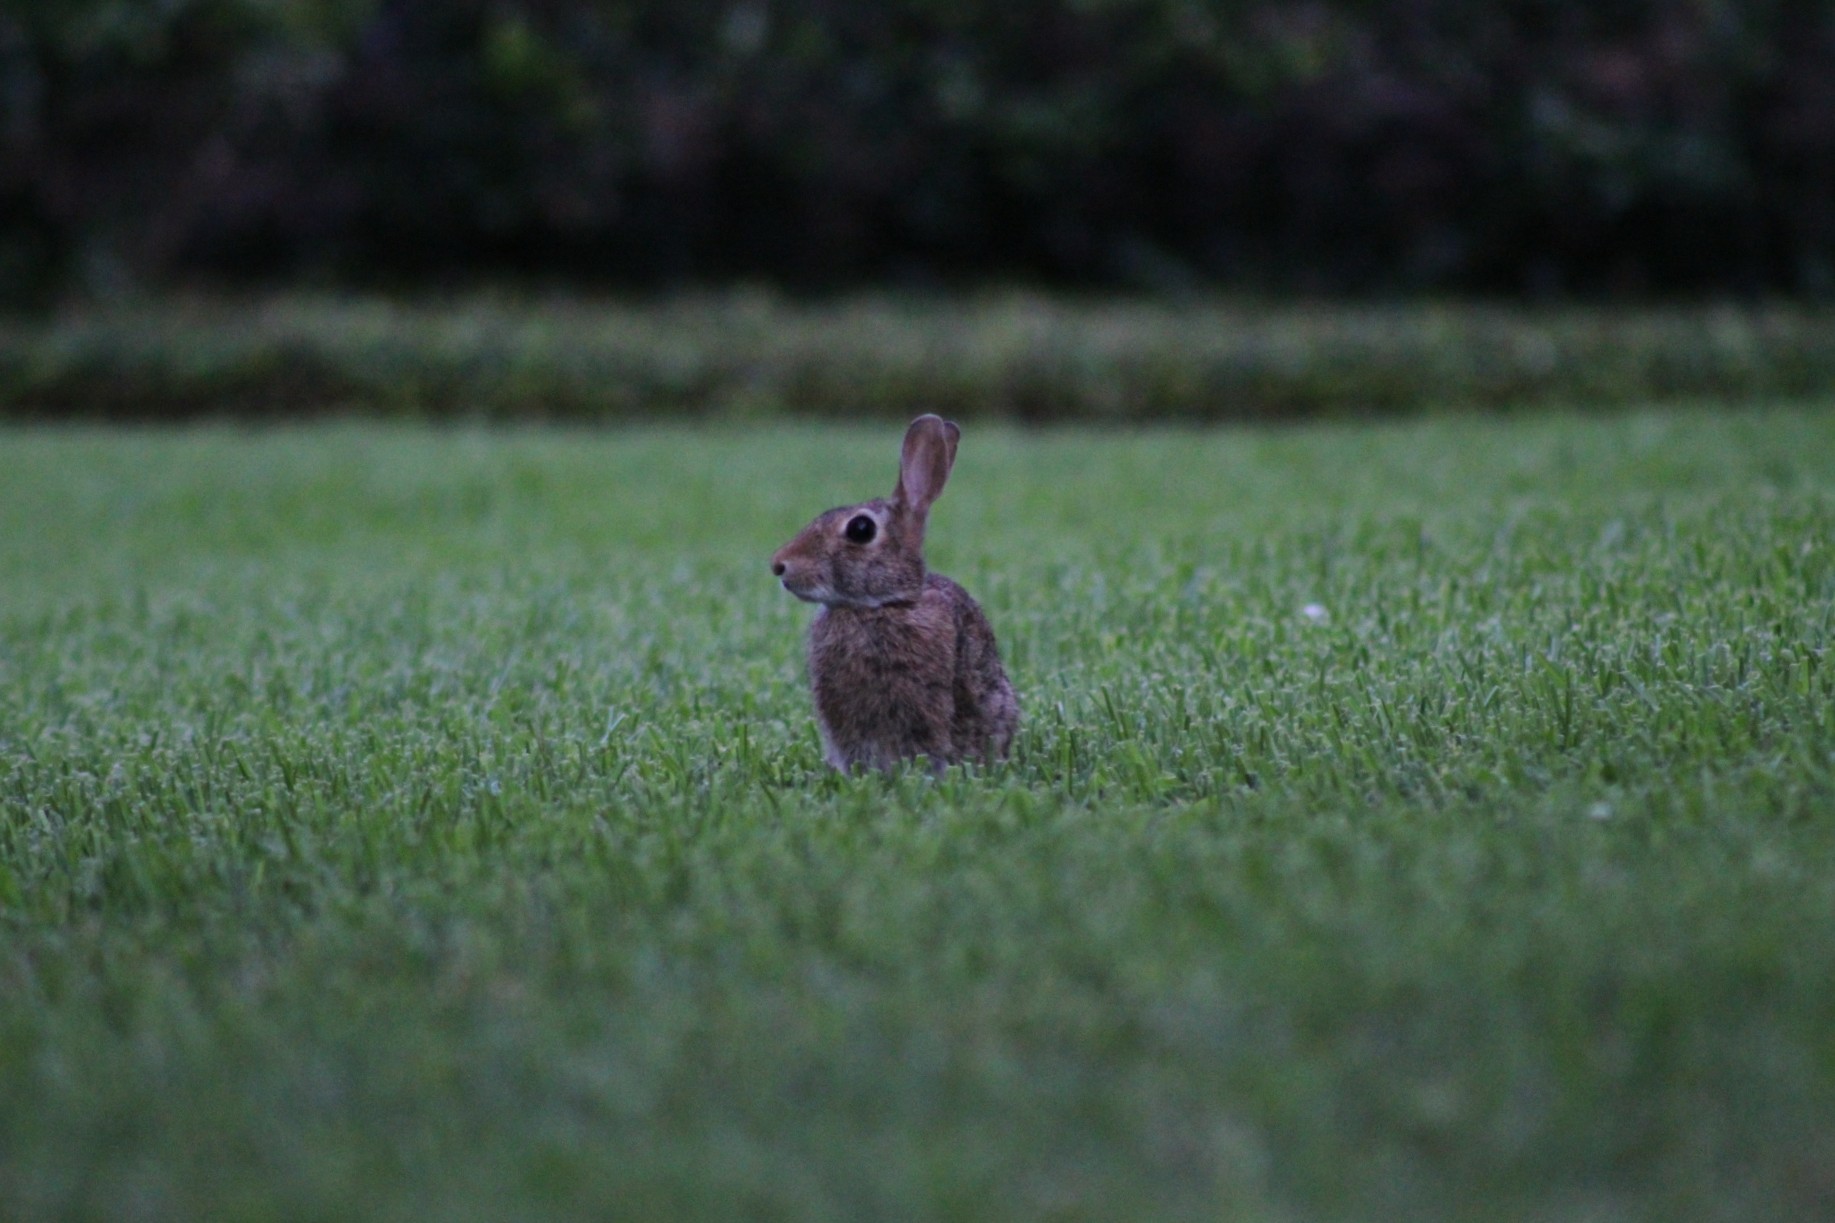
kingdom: Animalia
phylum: Chordata
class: Mammalia
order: Lagomorpha
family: Leporidae
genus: Sylvilagus
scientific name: Sylvilagus floridanus
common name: Eastern cottontail
